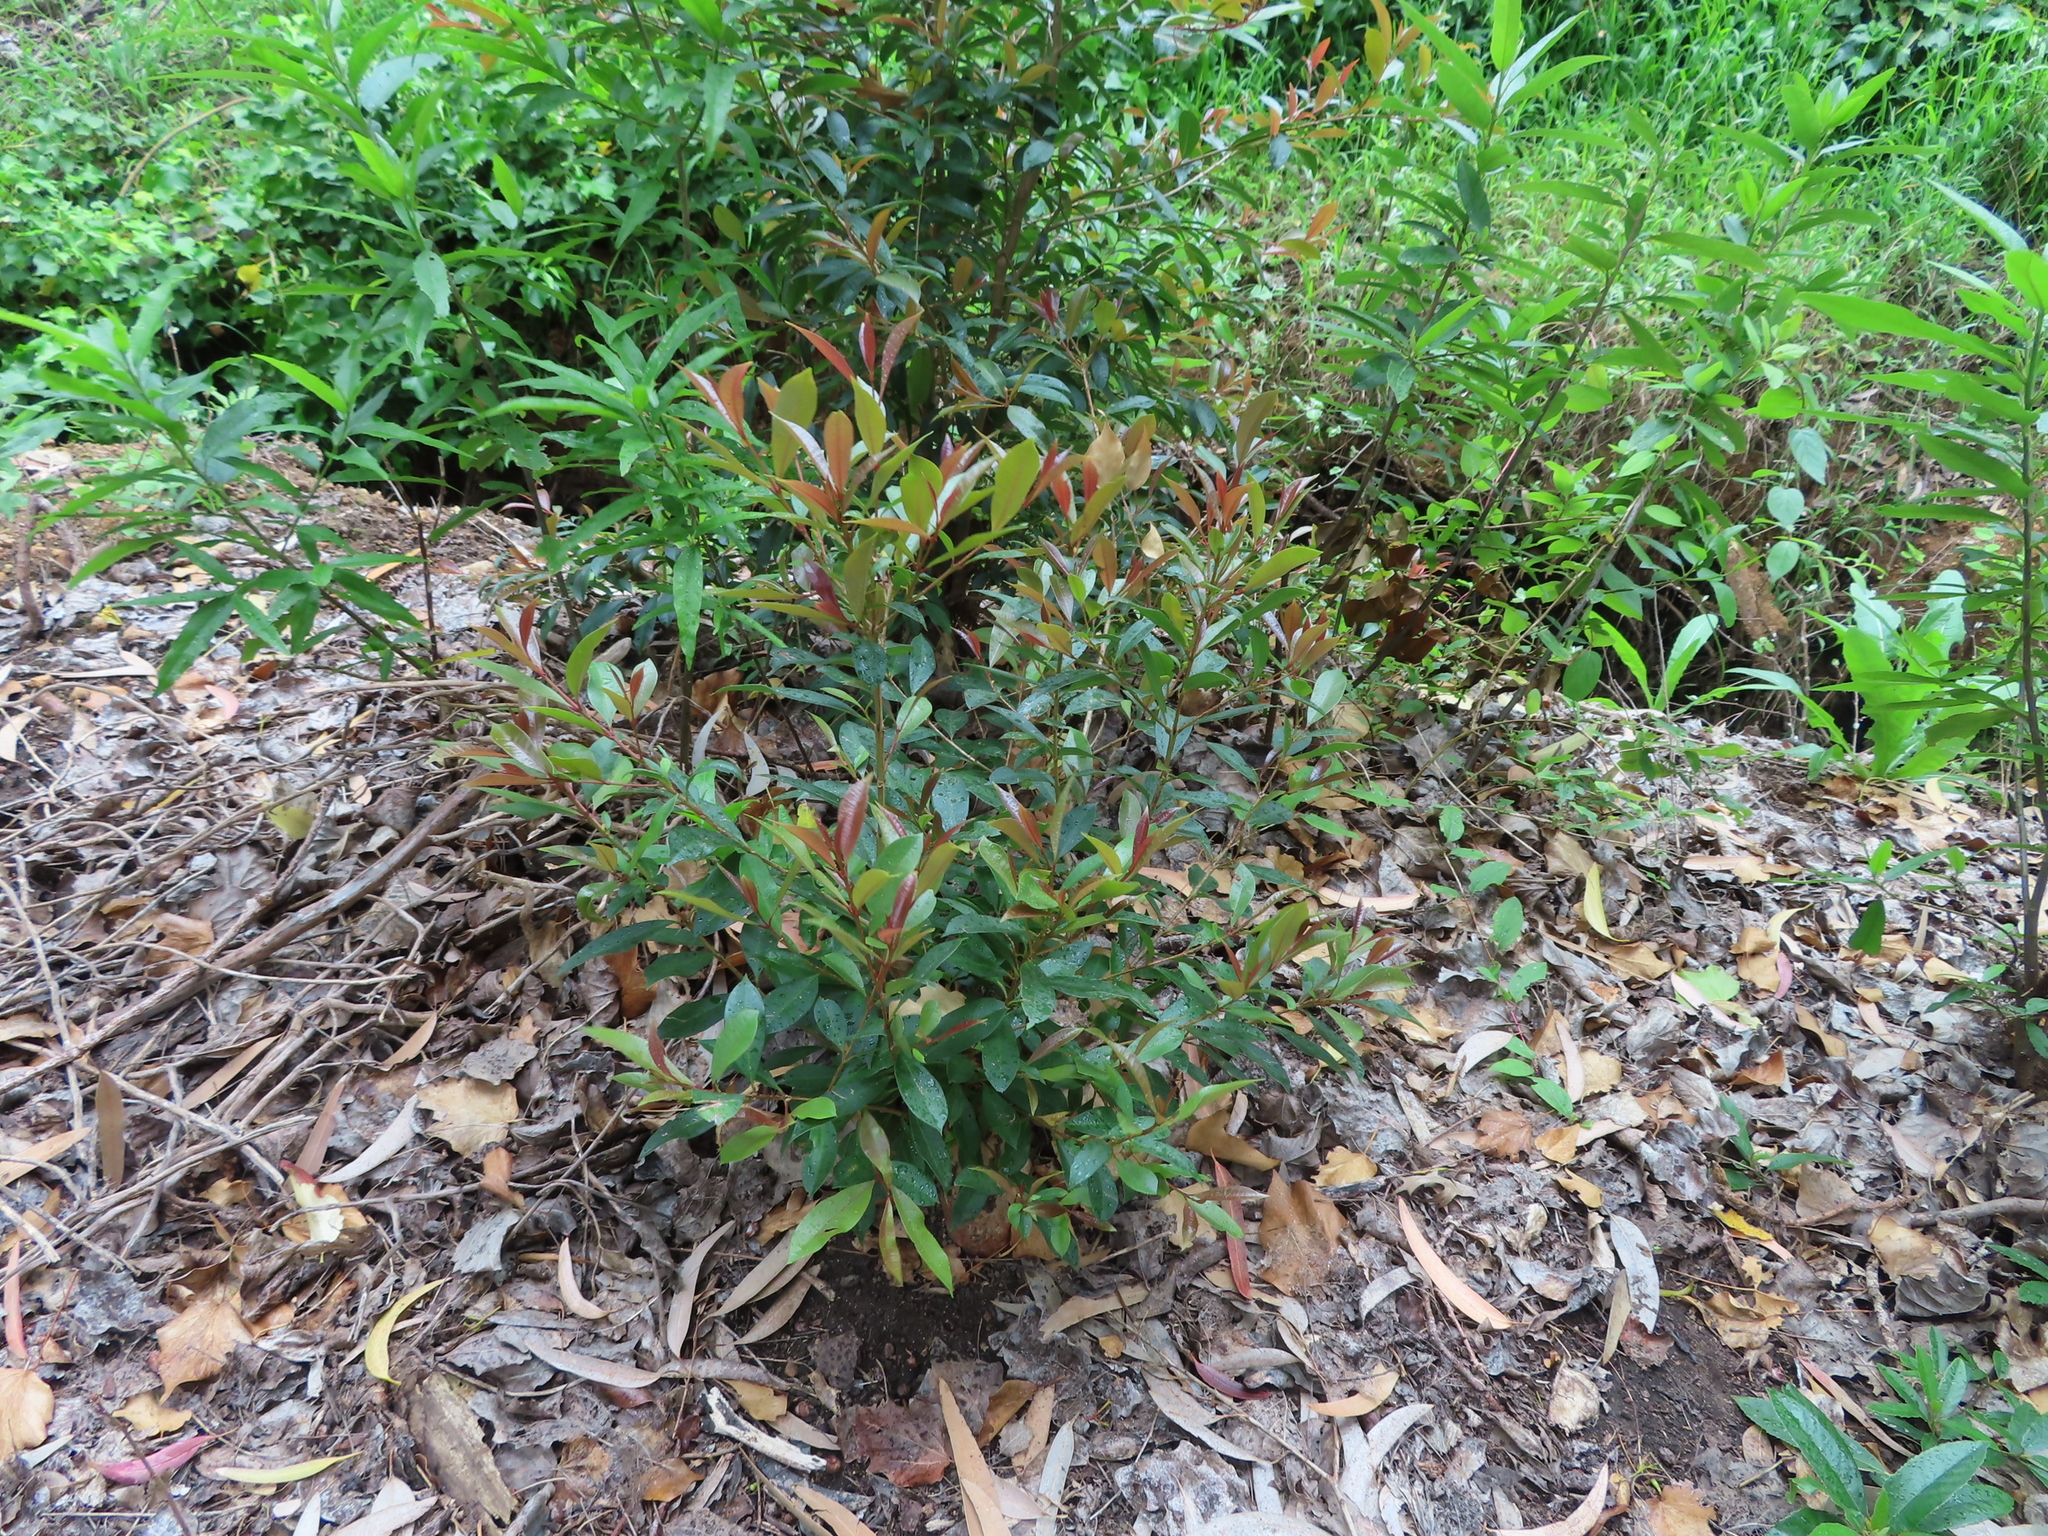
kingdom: Plantae
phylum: Tracheophyta
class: Magnoliopsida
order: Myrtales
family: Myrtaceae
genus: Syzygium
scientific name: Syzygium australe
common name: Australian brush-cherry
